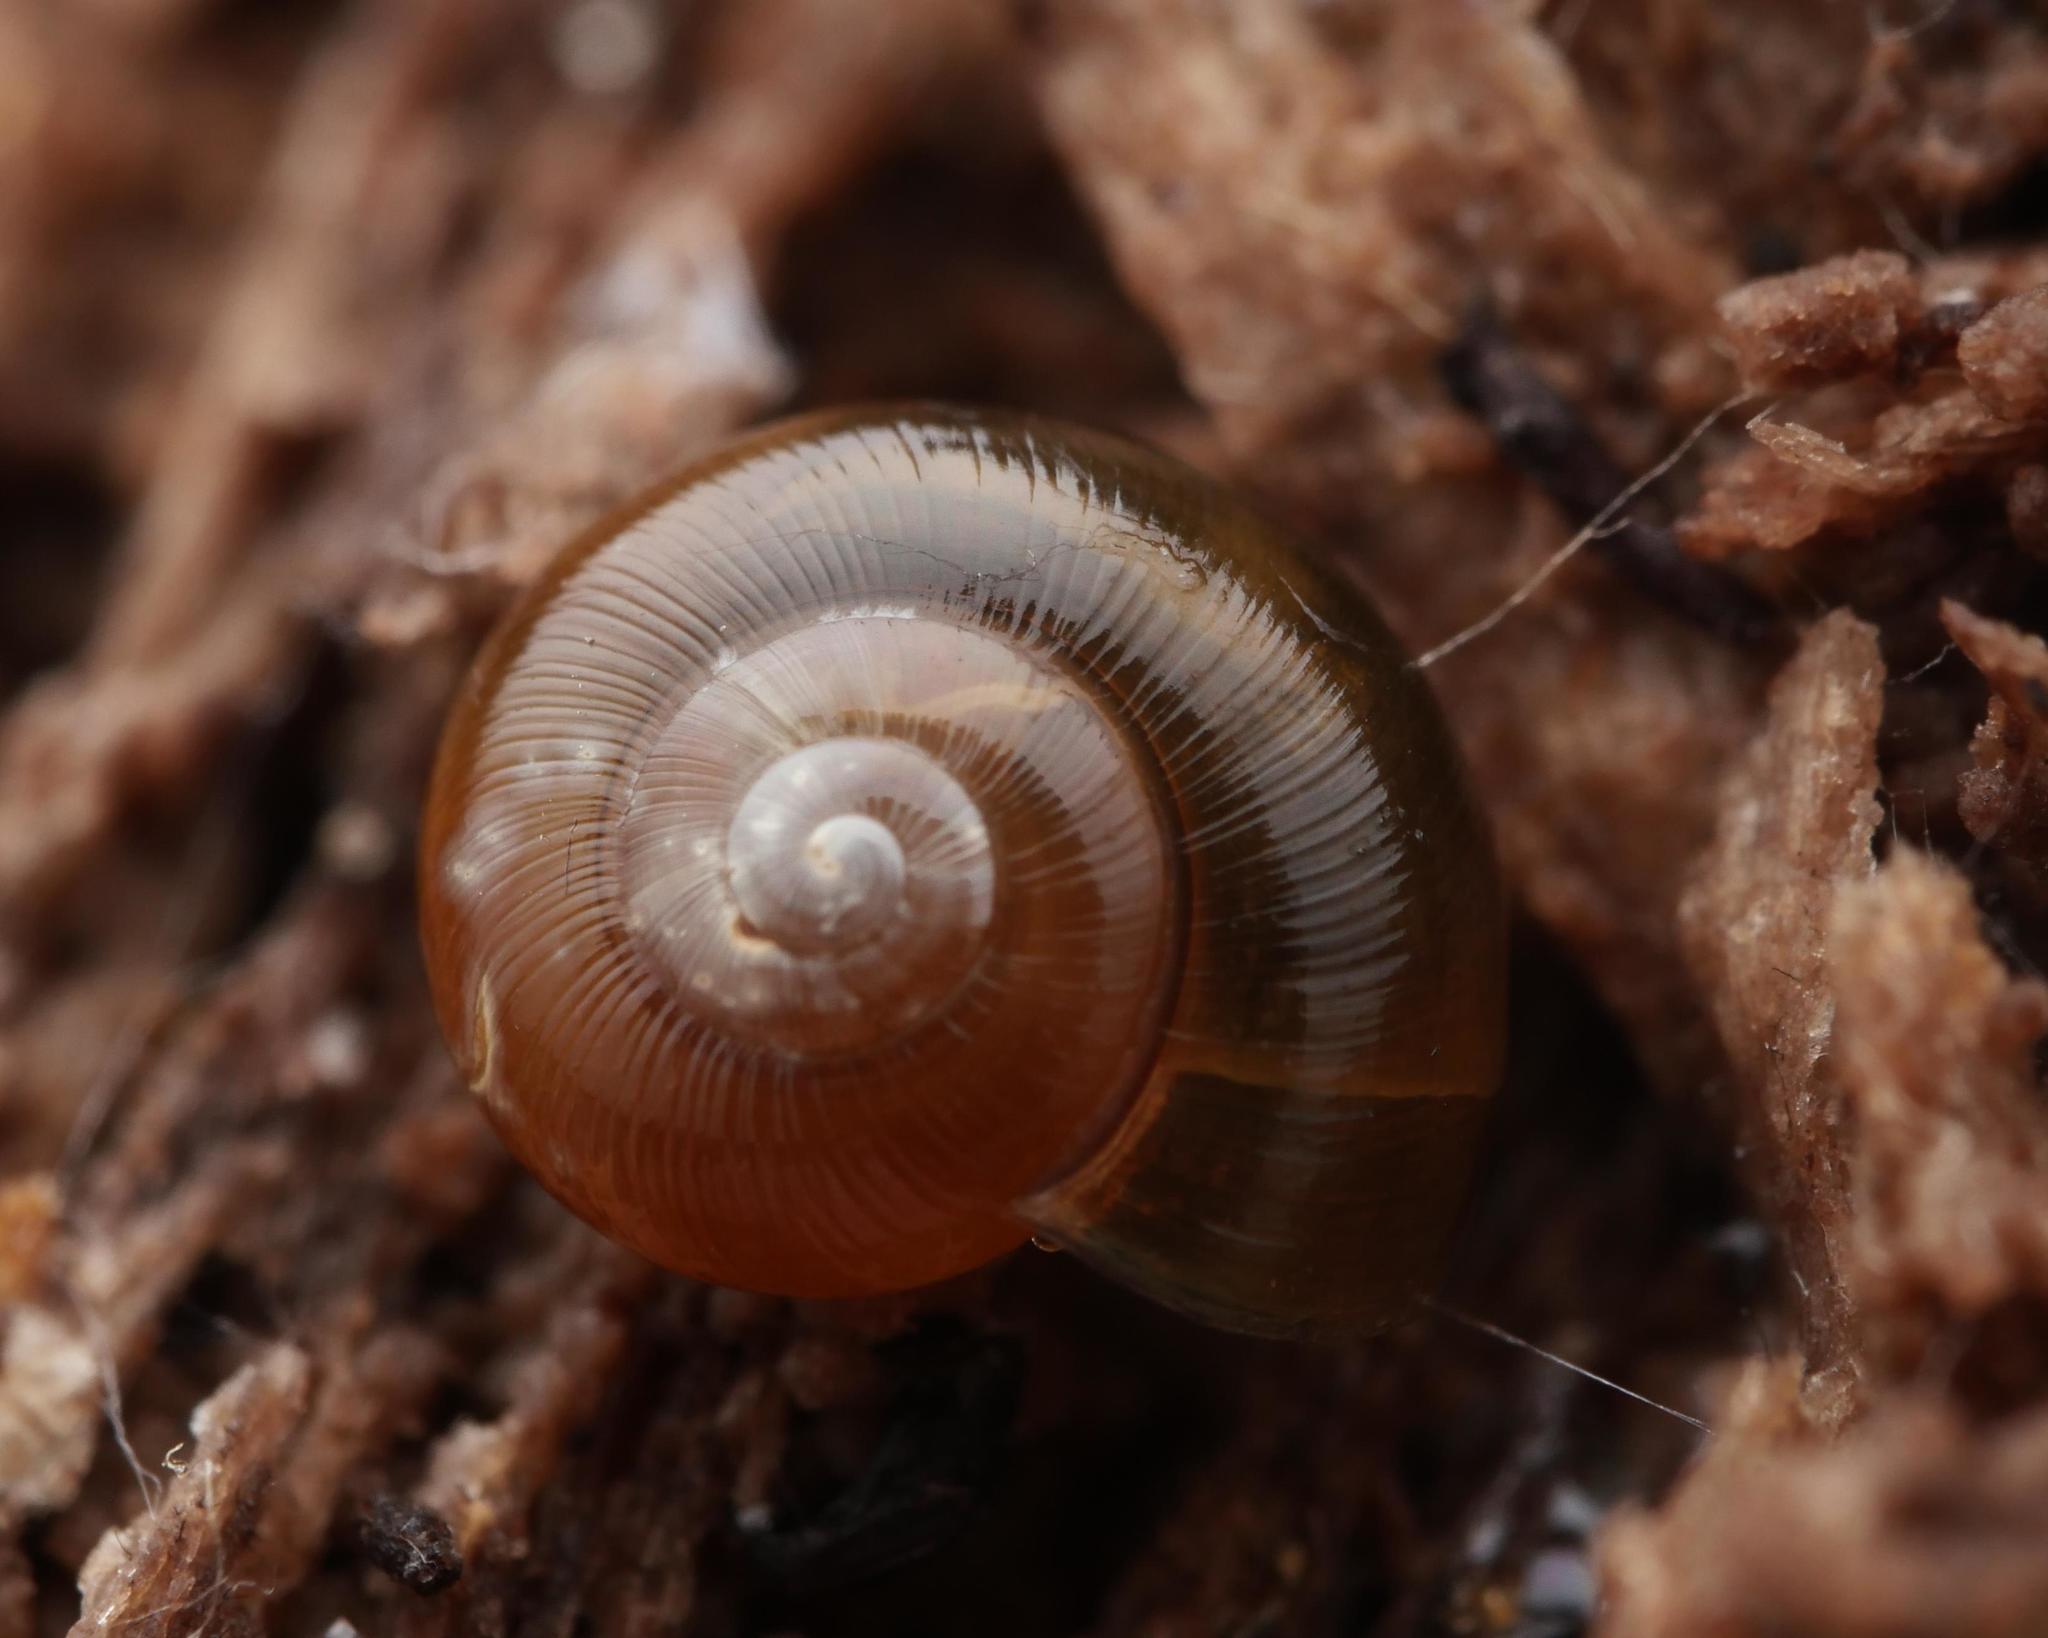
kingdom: Animalia
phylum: Mollusca
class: Gastropoda
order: Stylommatophora
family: Gastrodontidae
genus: Perpolita
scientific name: Perpolita hammonis
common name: Rayed glass snail
